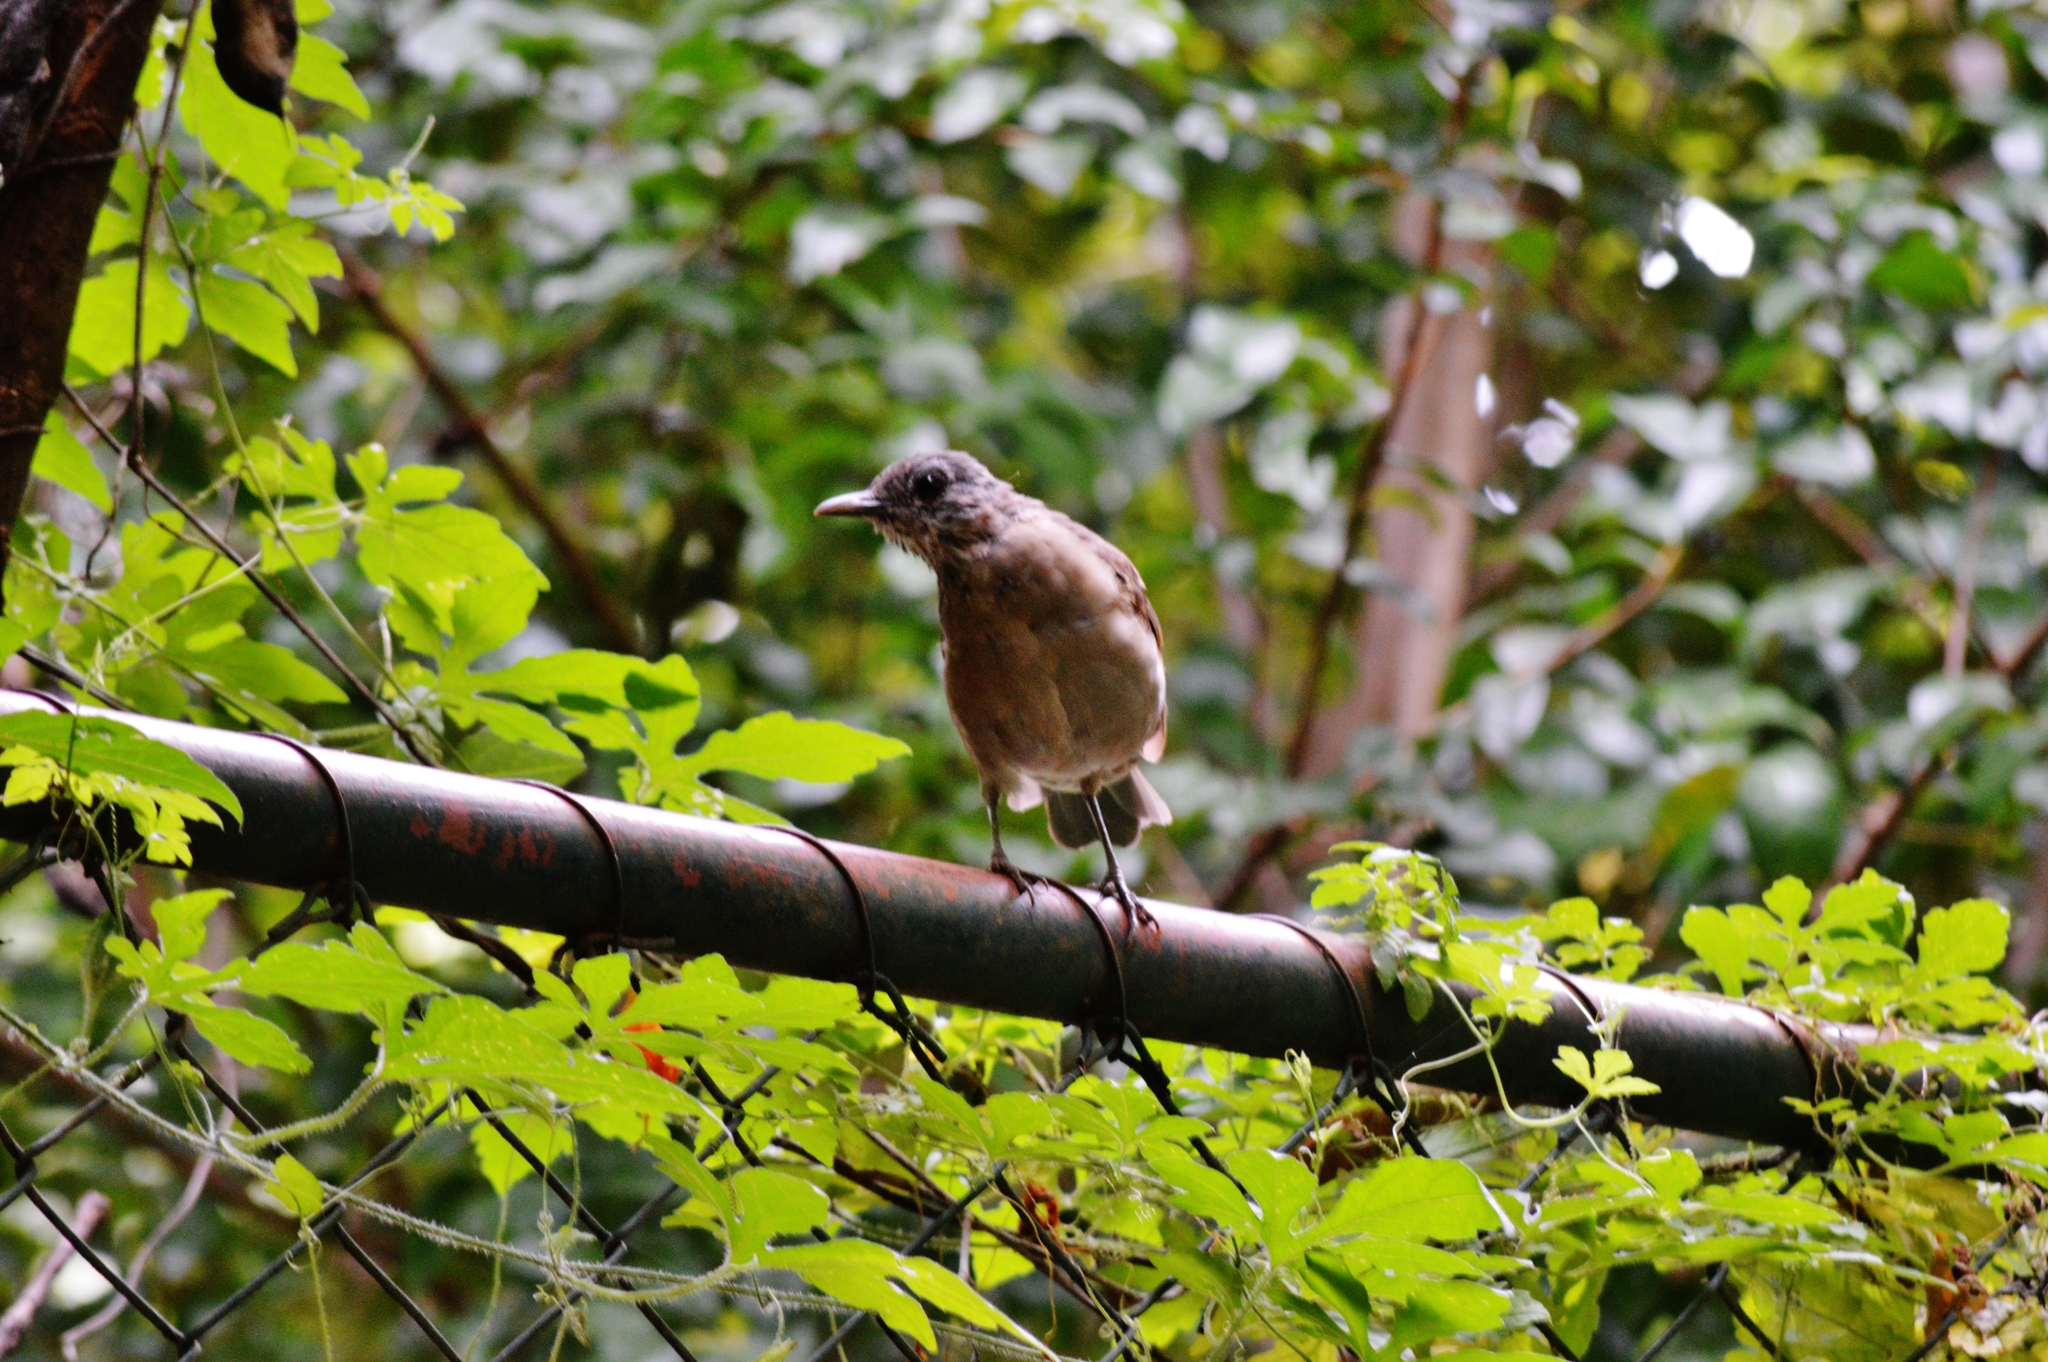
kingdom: Animalia
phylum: Chordata
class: Aves
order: Passeriformes
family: Turdidae
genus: Turdus
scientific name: Turdus leucomelas
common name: Pale-breasted thrush
